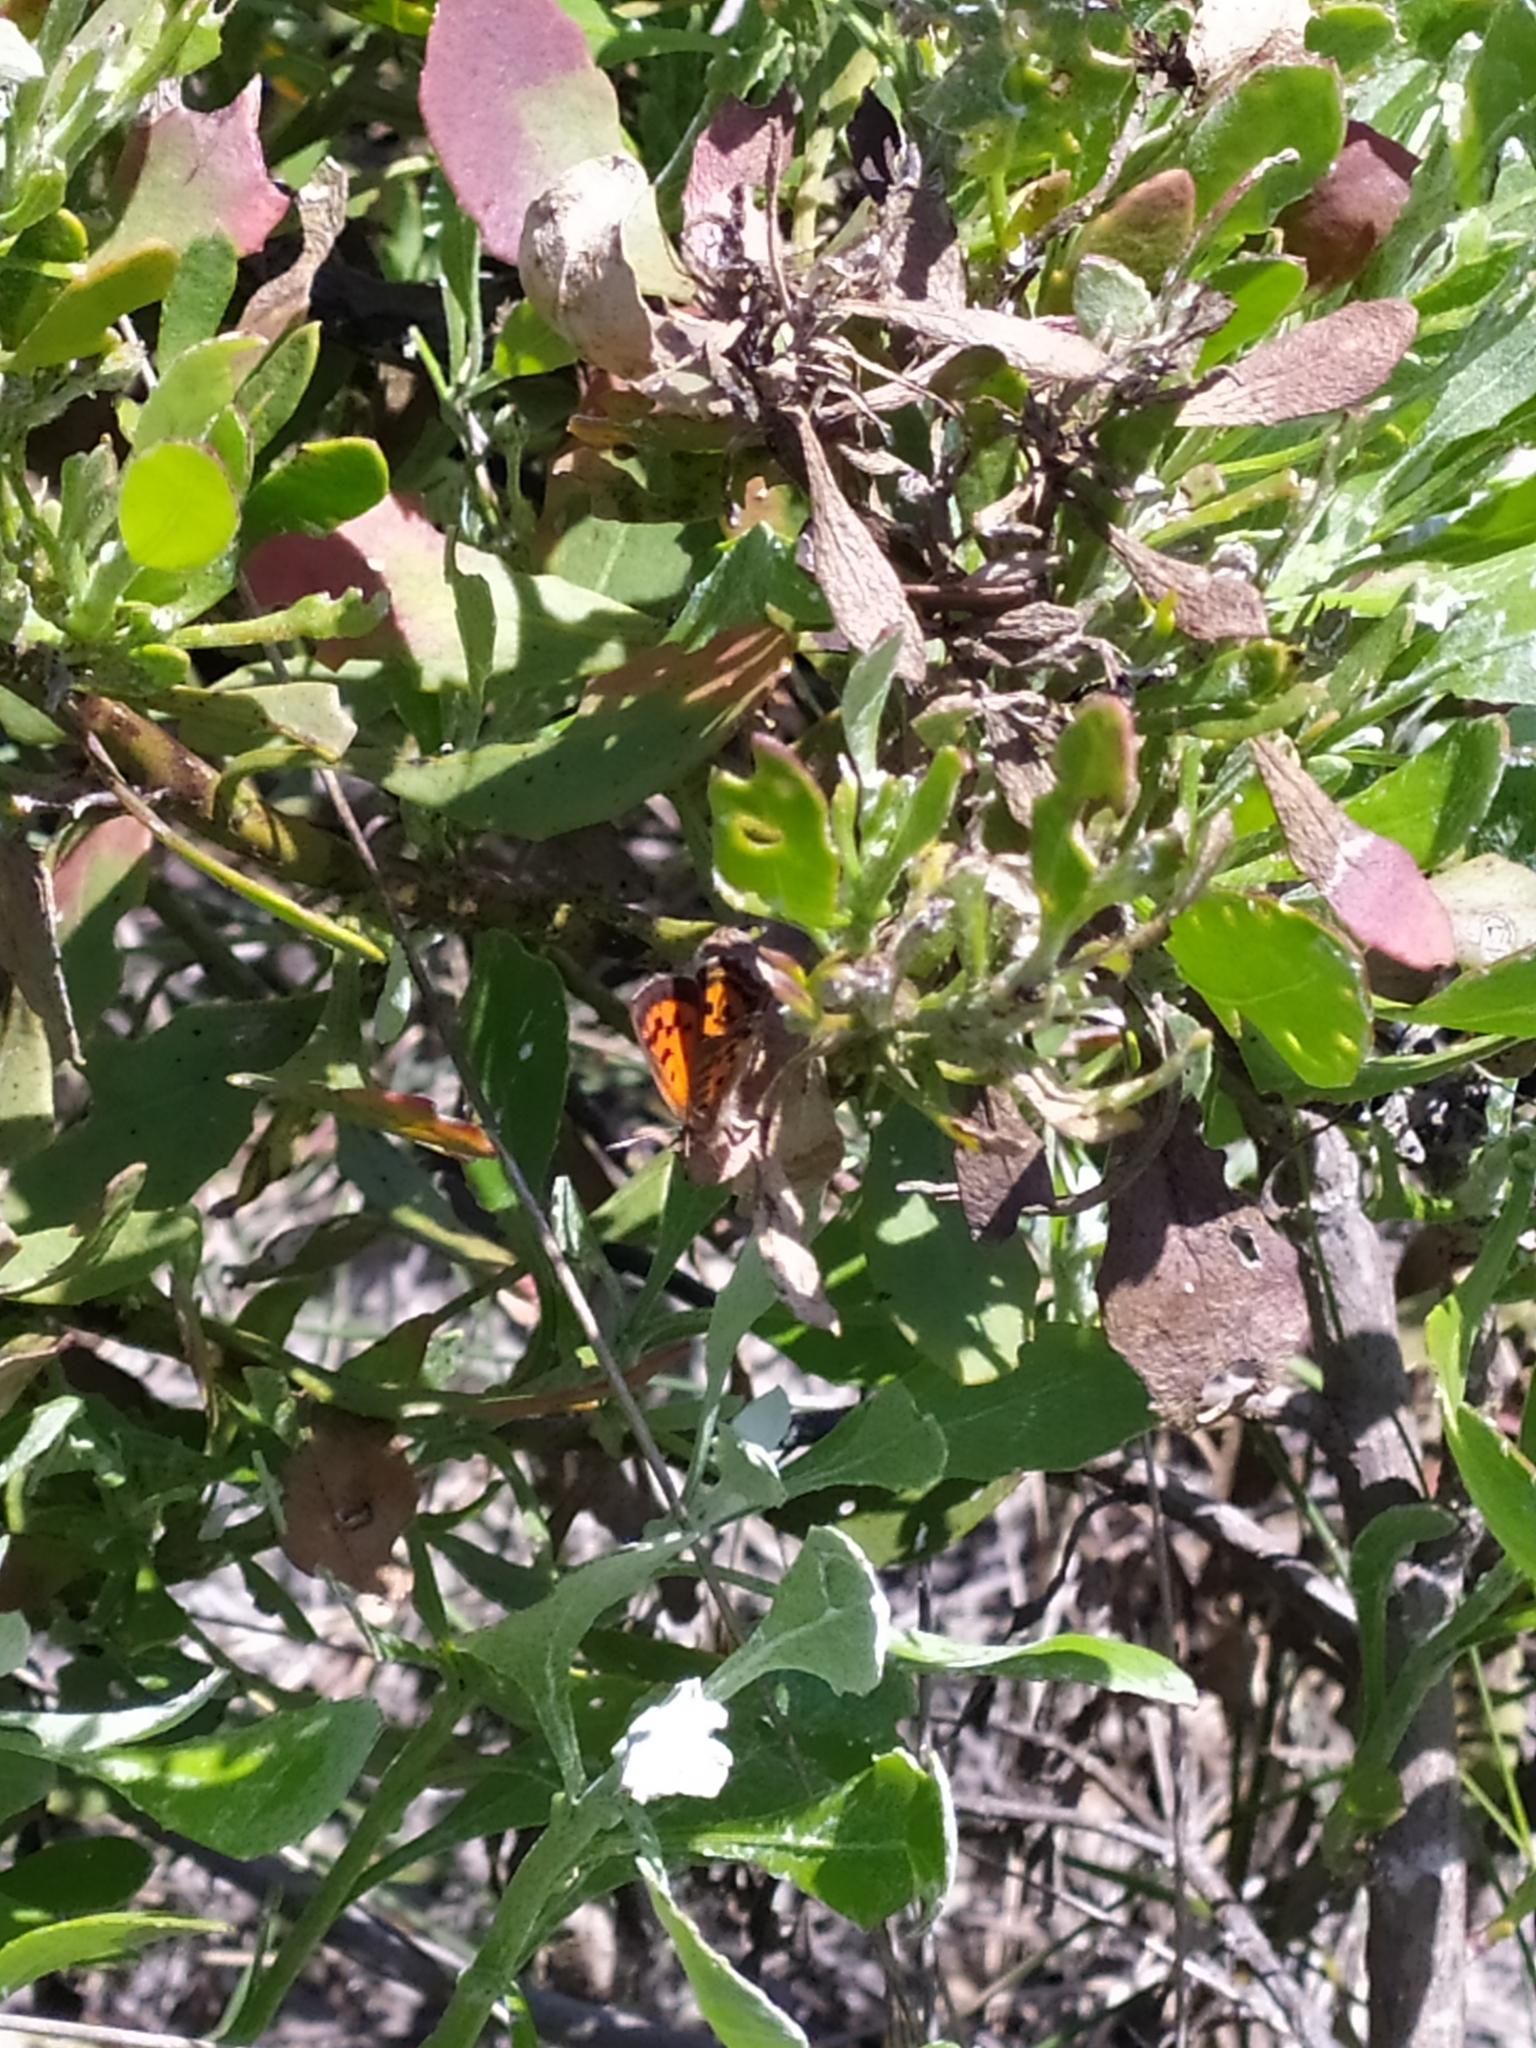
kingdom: Animalia
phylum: Arthropoda
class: Insecta
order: Lepidoptera
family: Lycaenidae
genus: Chrysoritis
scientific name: Chrysoritis
